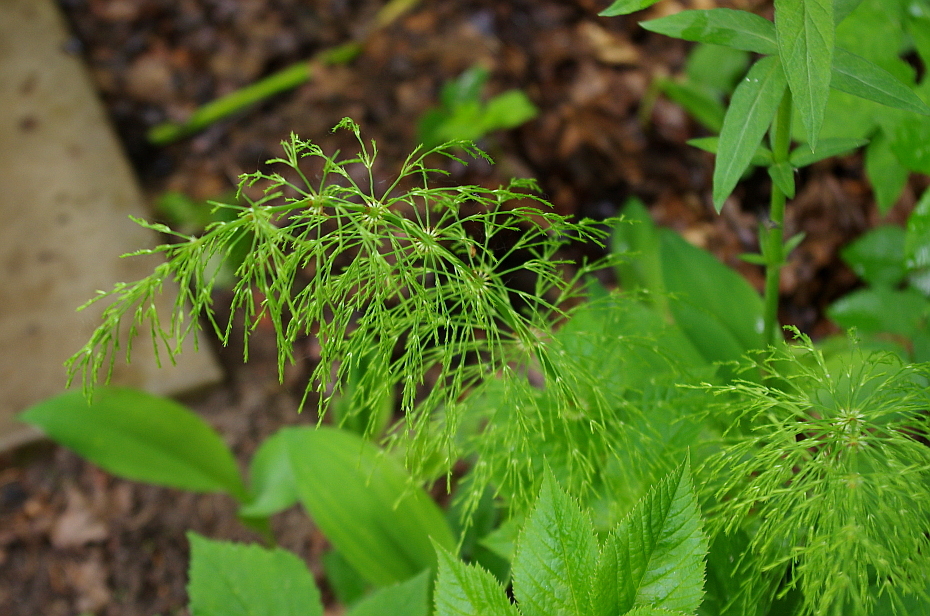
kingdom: Plantae
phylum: Tracheophyta
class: Polypodiopsida
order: Equisetales
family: Equisetaceae
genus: Equisetum
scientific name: Equisetum sylvaticum
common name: Wood horsetail
